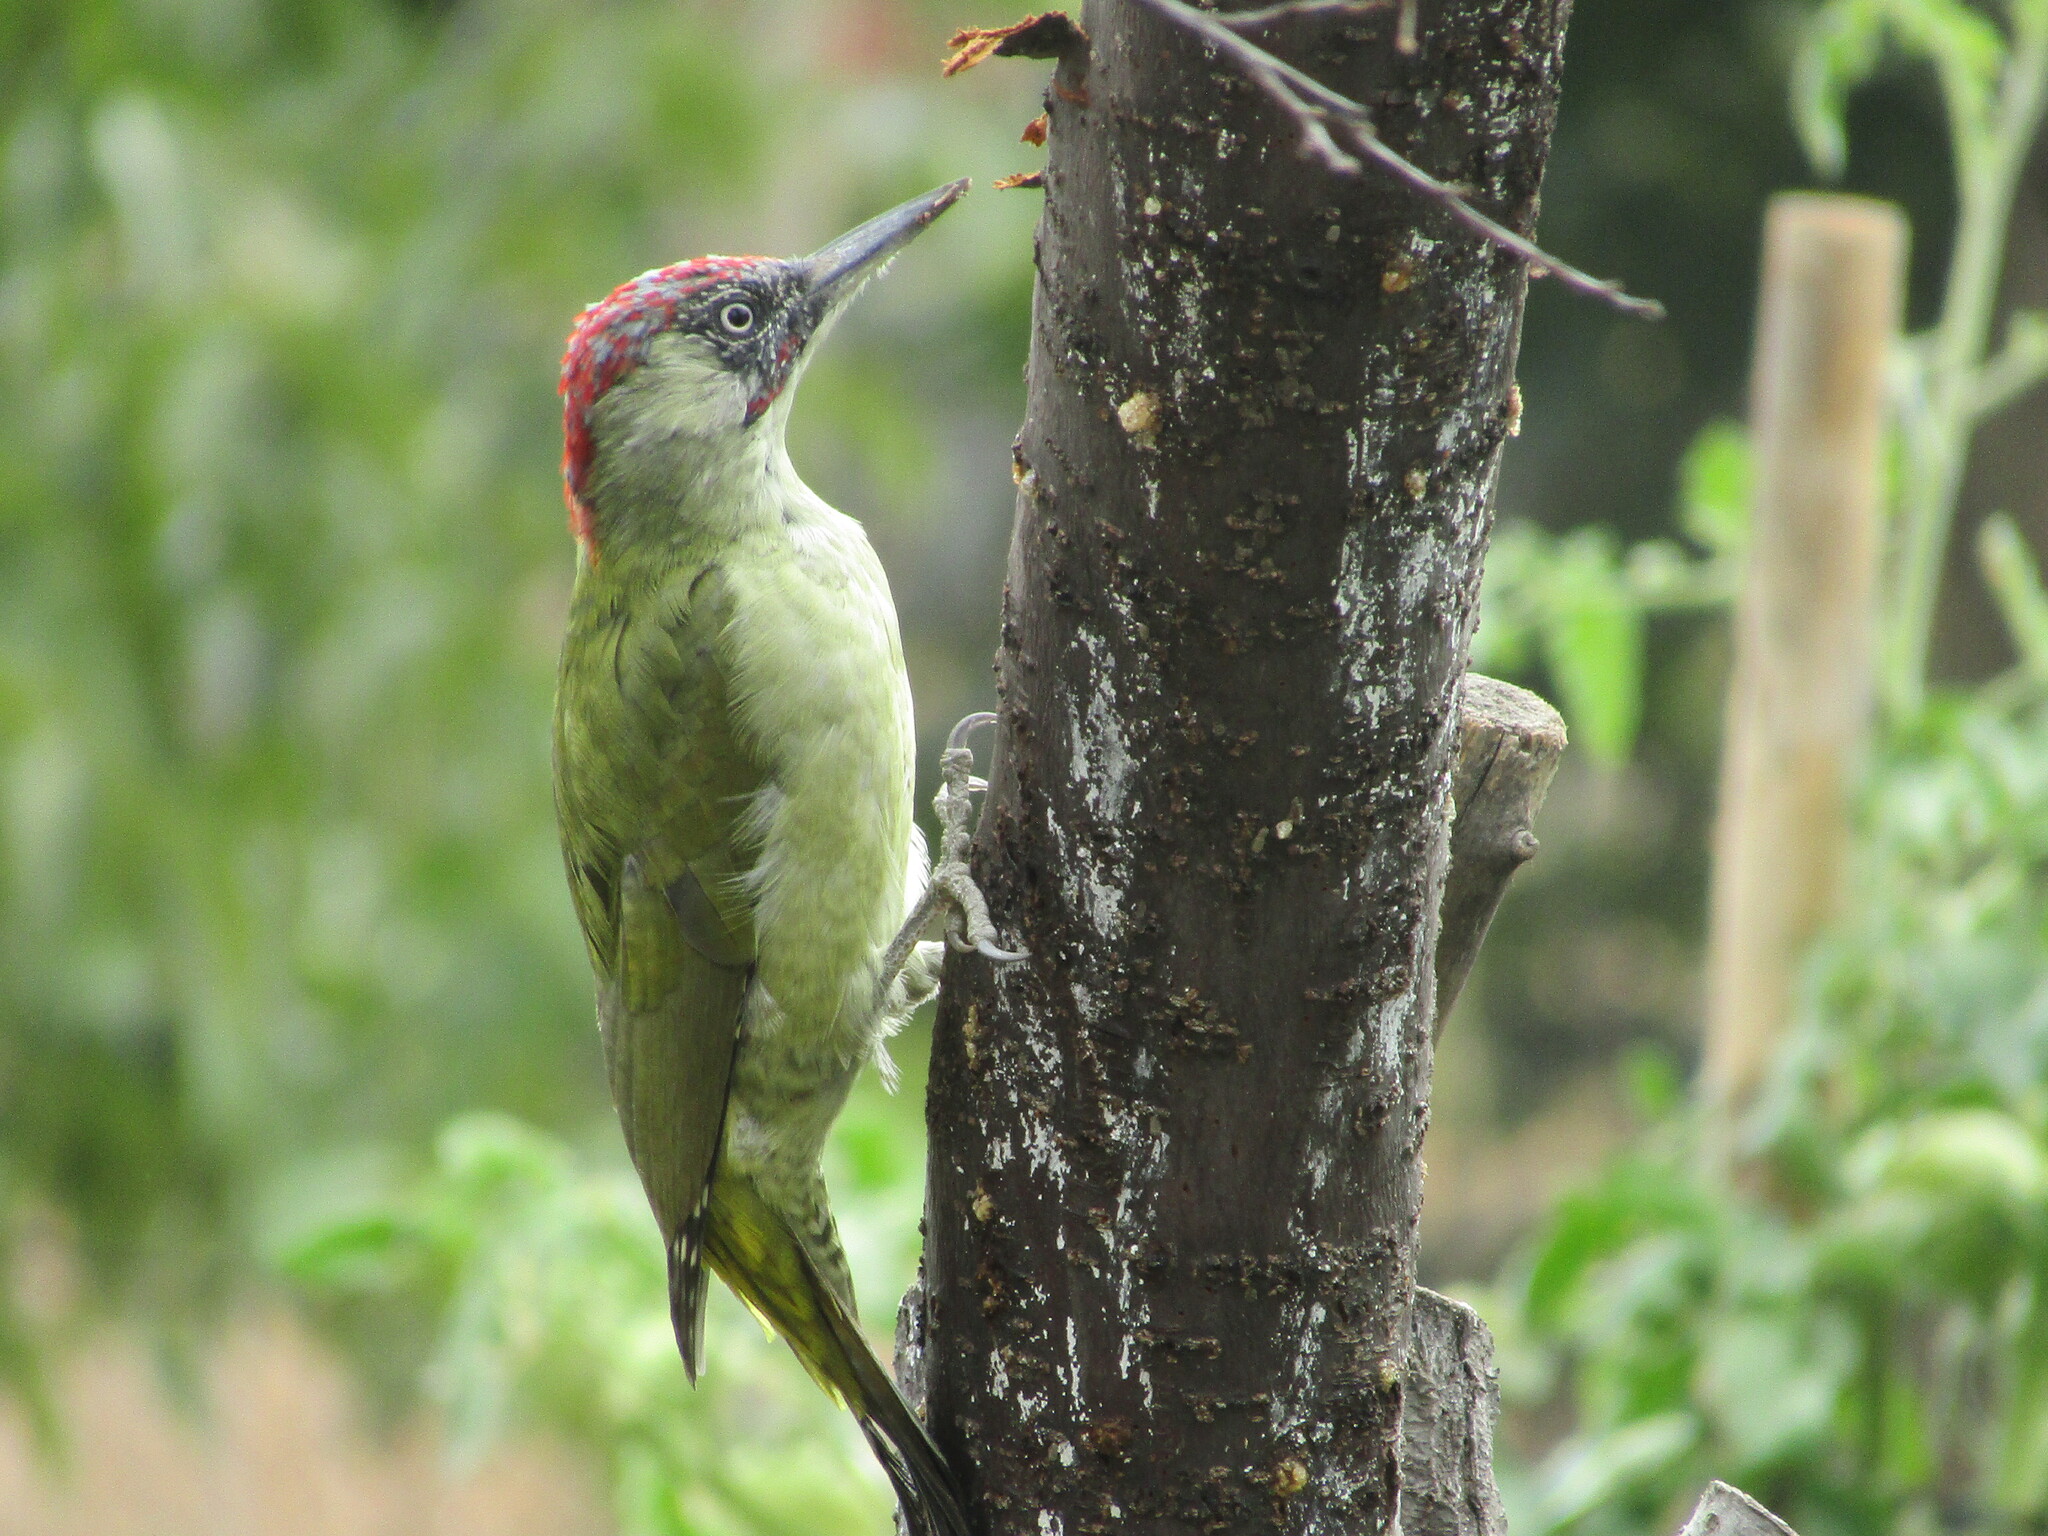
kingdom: Animalia
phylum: Chordata
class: Aves
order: Piciformes
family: Picidae
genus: Picus
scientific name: Picus viridis
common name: European green woodpecker
